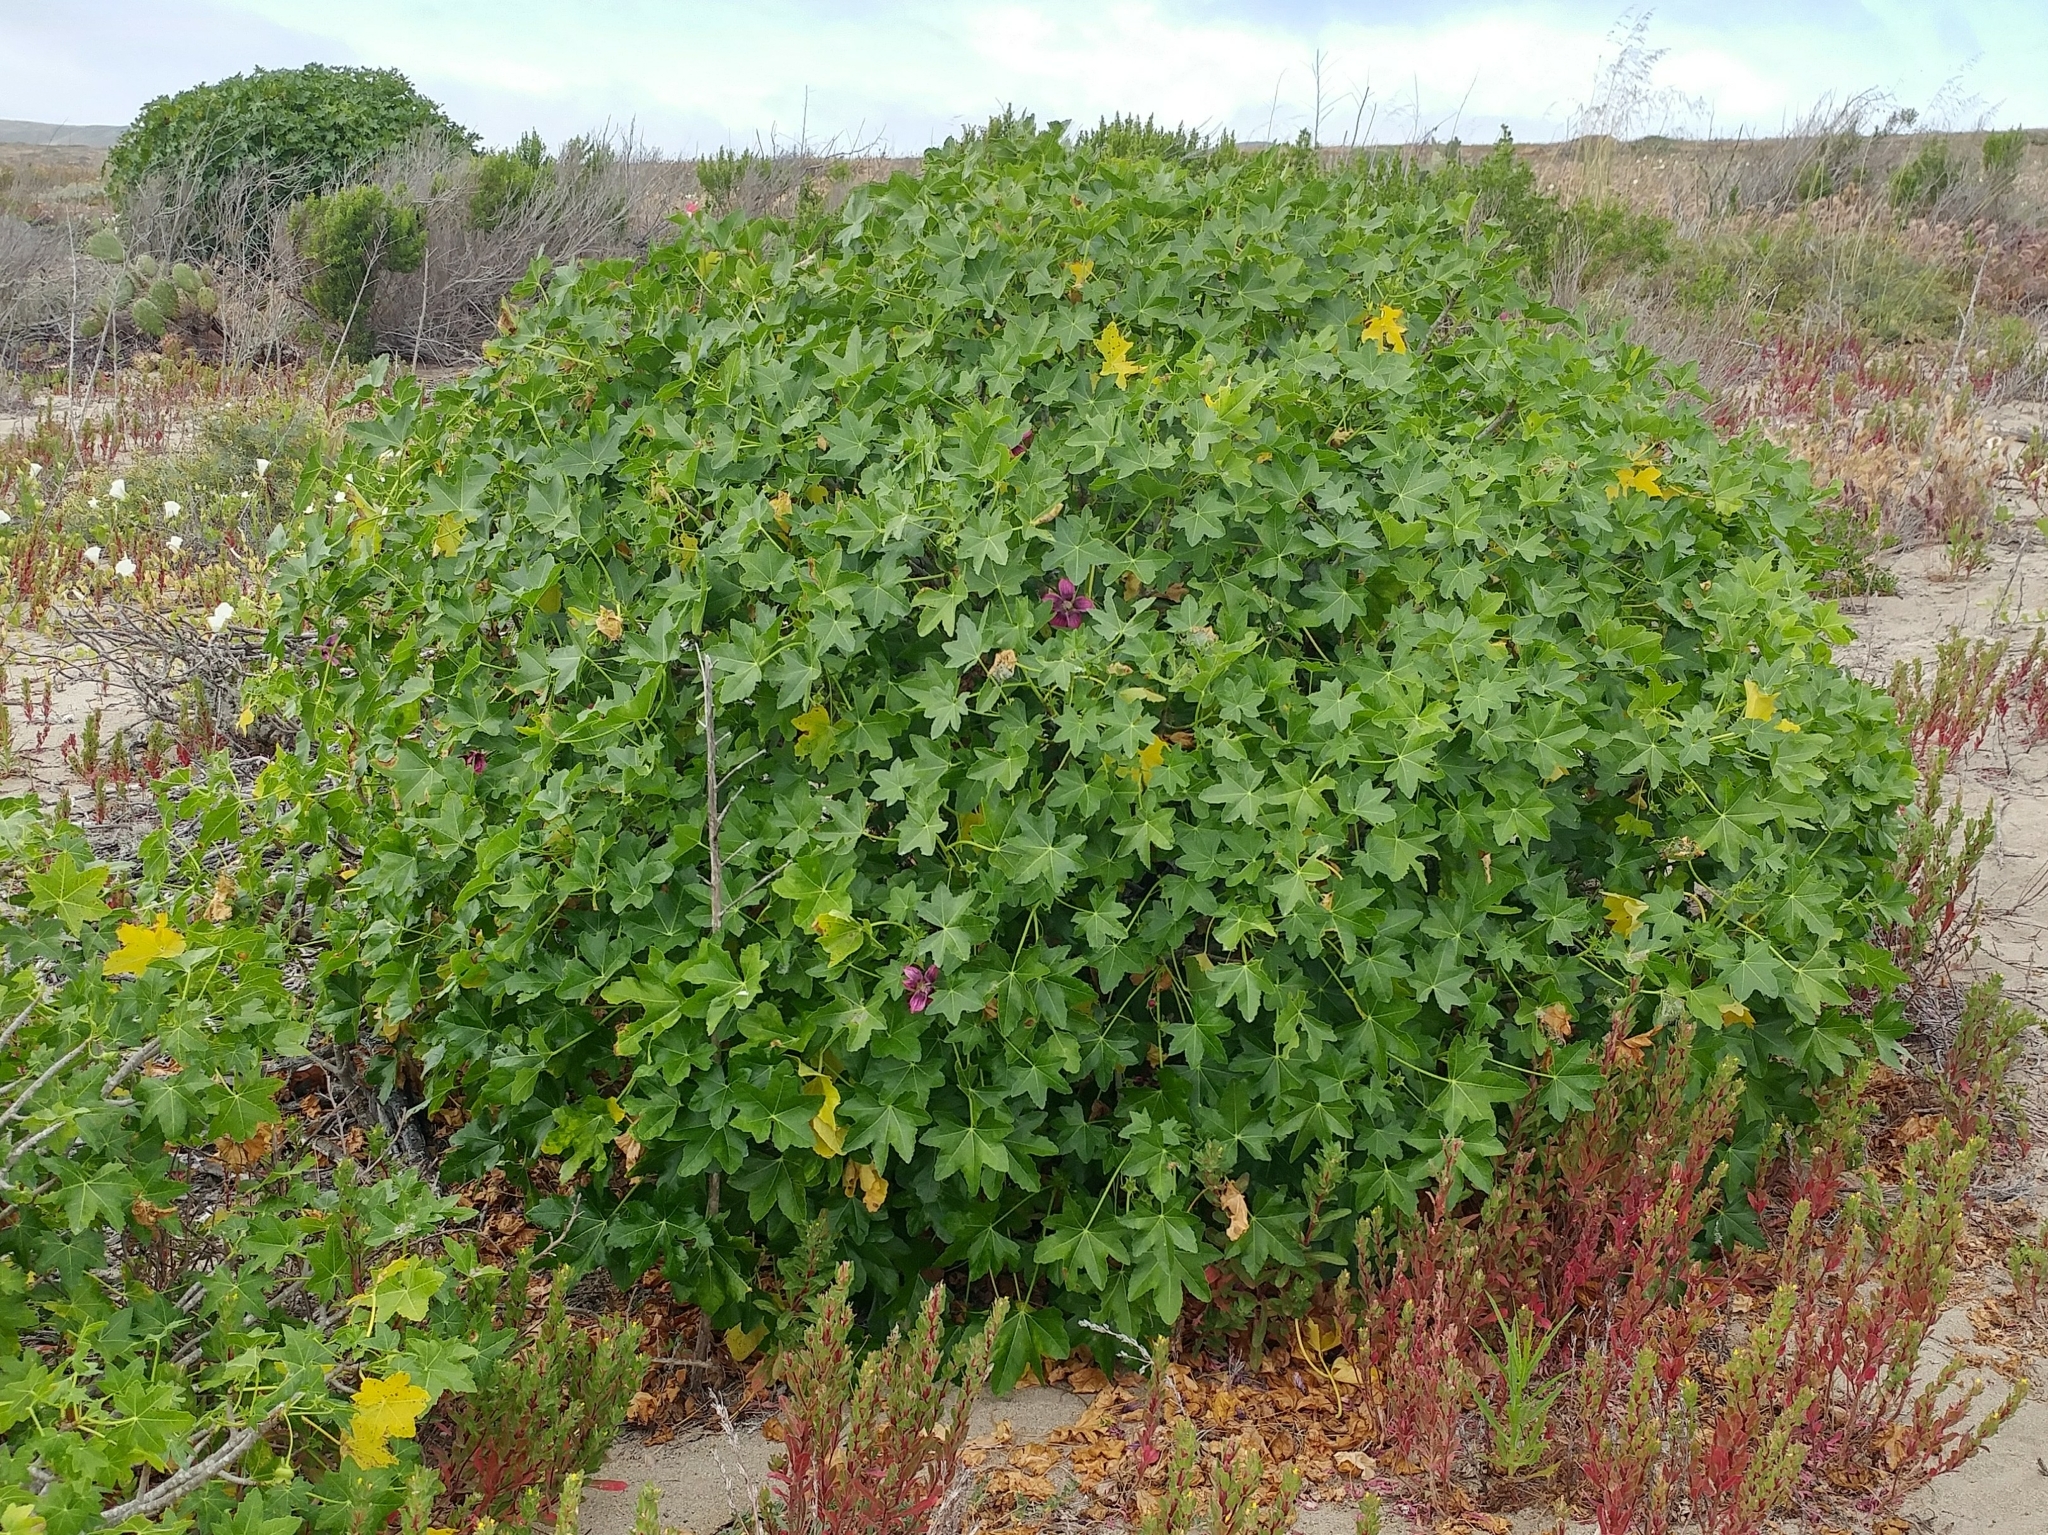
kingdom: Plantae
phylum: Tracheophyta
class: Magnoliopsida
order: Malvales
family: Malvaceae
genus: Malva
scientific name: Malva assurgentiflora
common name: Island mallow
